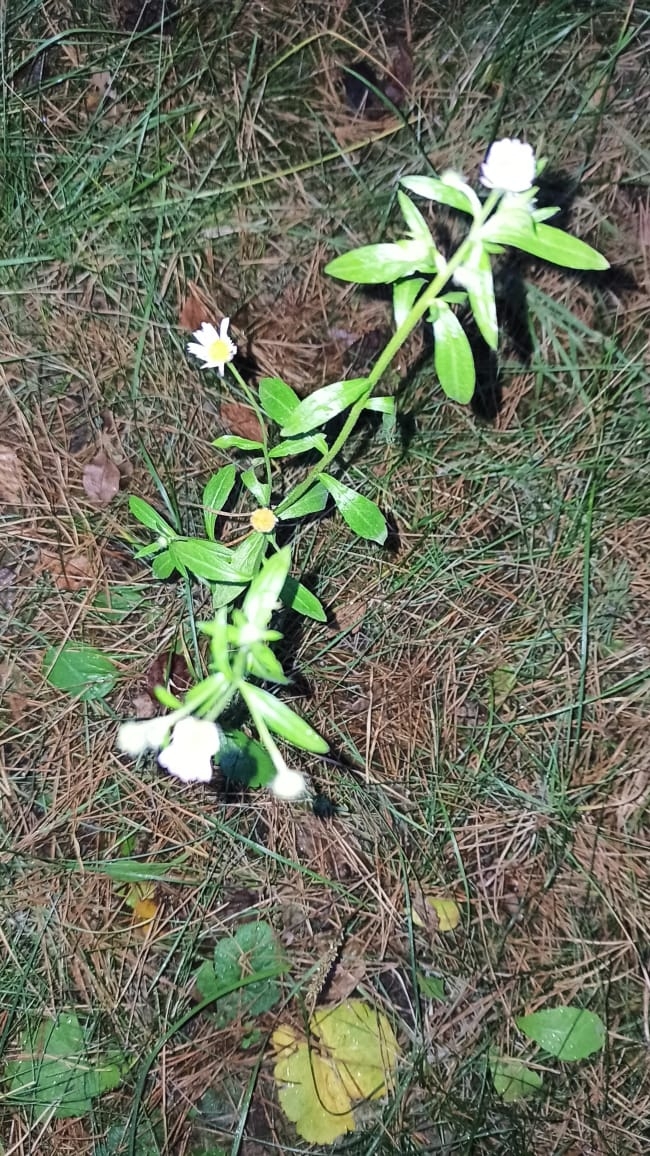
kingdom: Plantae
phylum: Tracheophyta
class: Magnoliopsida
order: Asterales
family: Asteraceae
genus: Erigeron
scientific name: Erigeron annuus
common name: Tall fleabane
